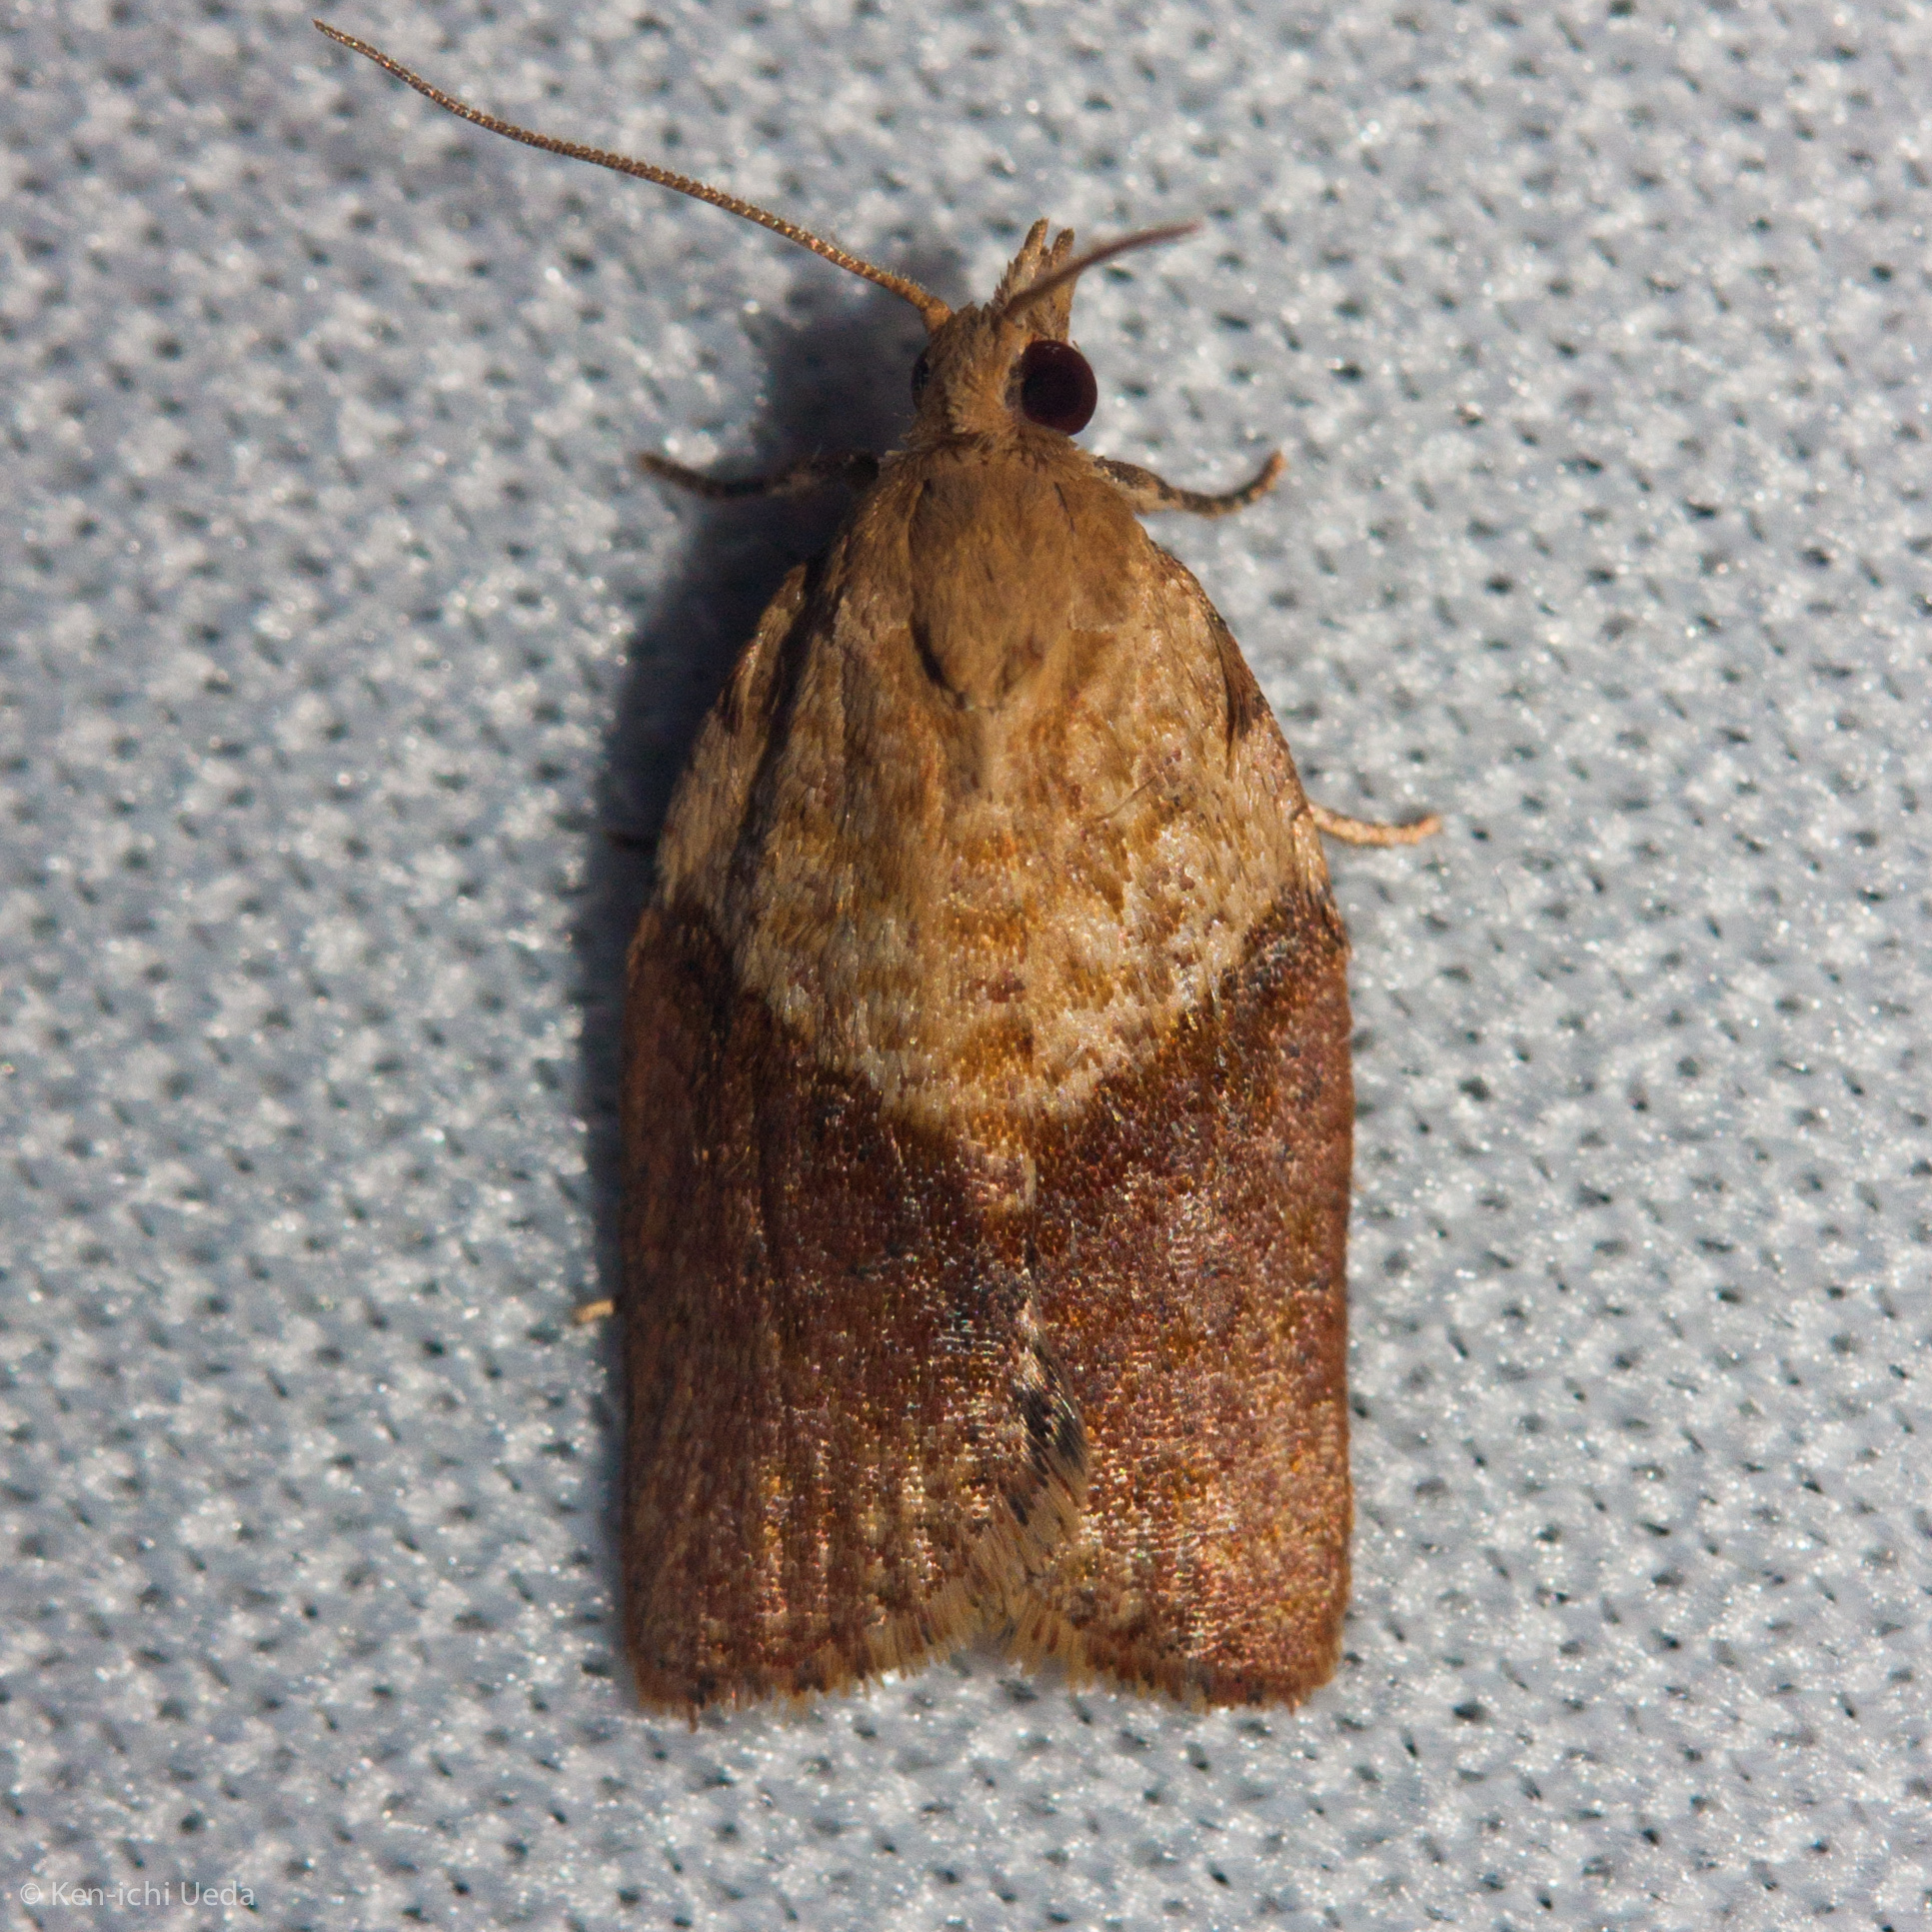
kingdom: Animalia
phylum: Arthropoda
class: Insecta
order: Lepidoptera
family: Tortricidae
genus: Epiphyas
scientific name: Epiphyas postvittana
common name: Light brown apple moth
